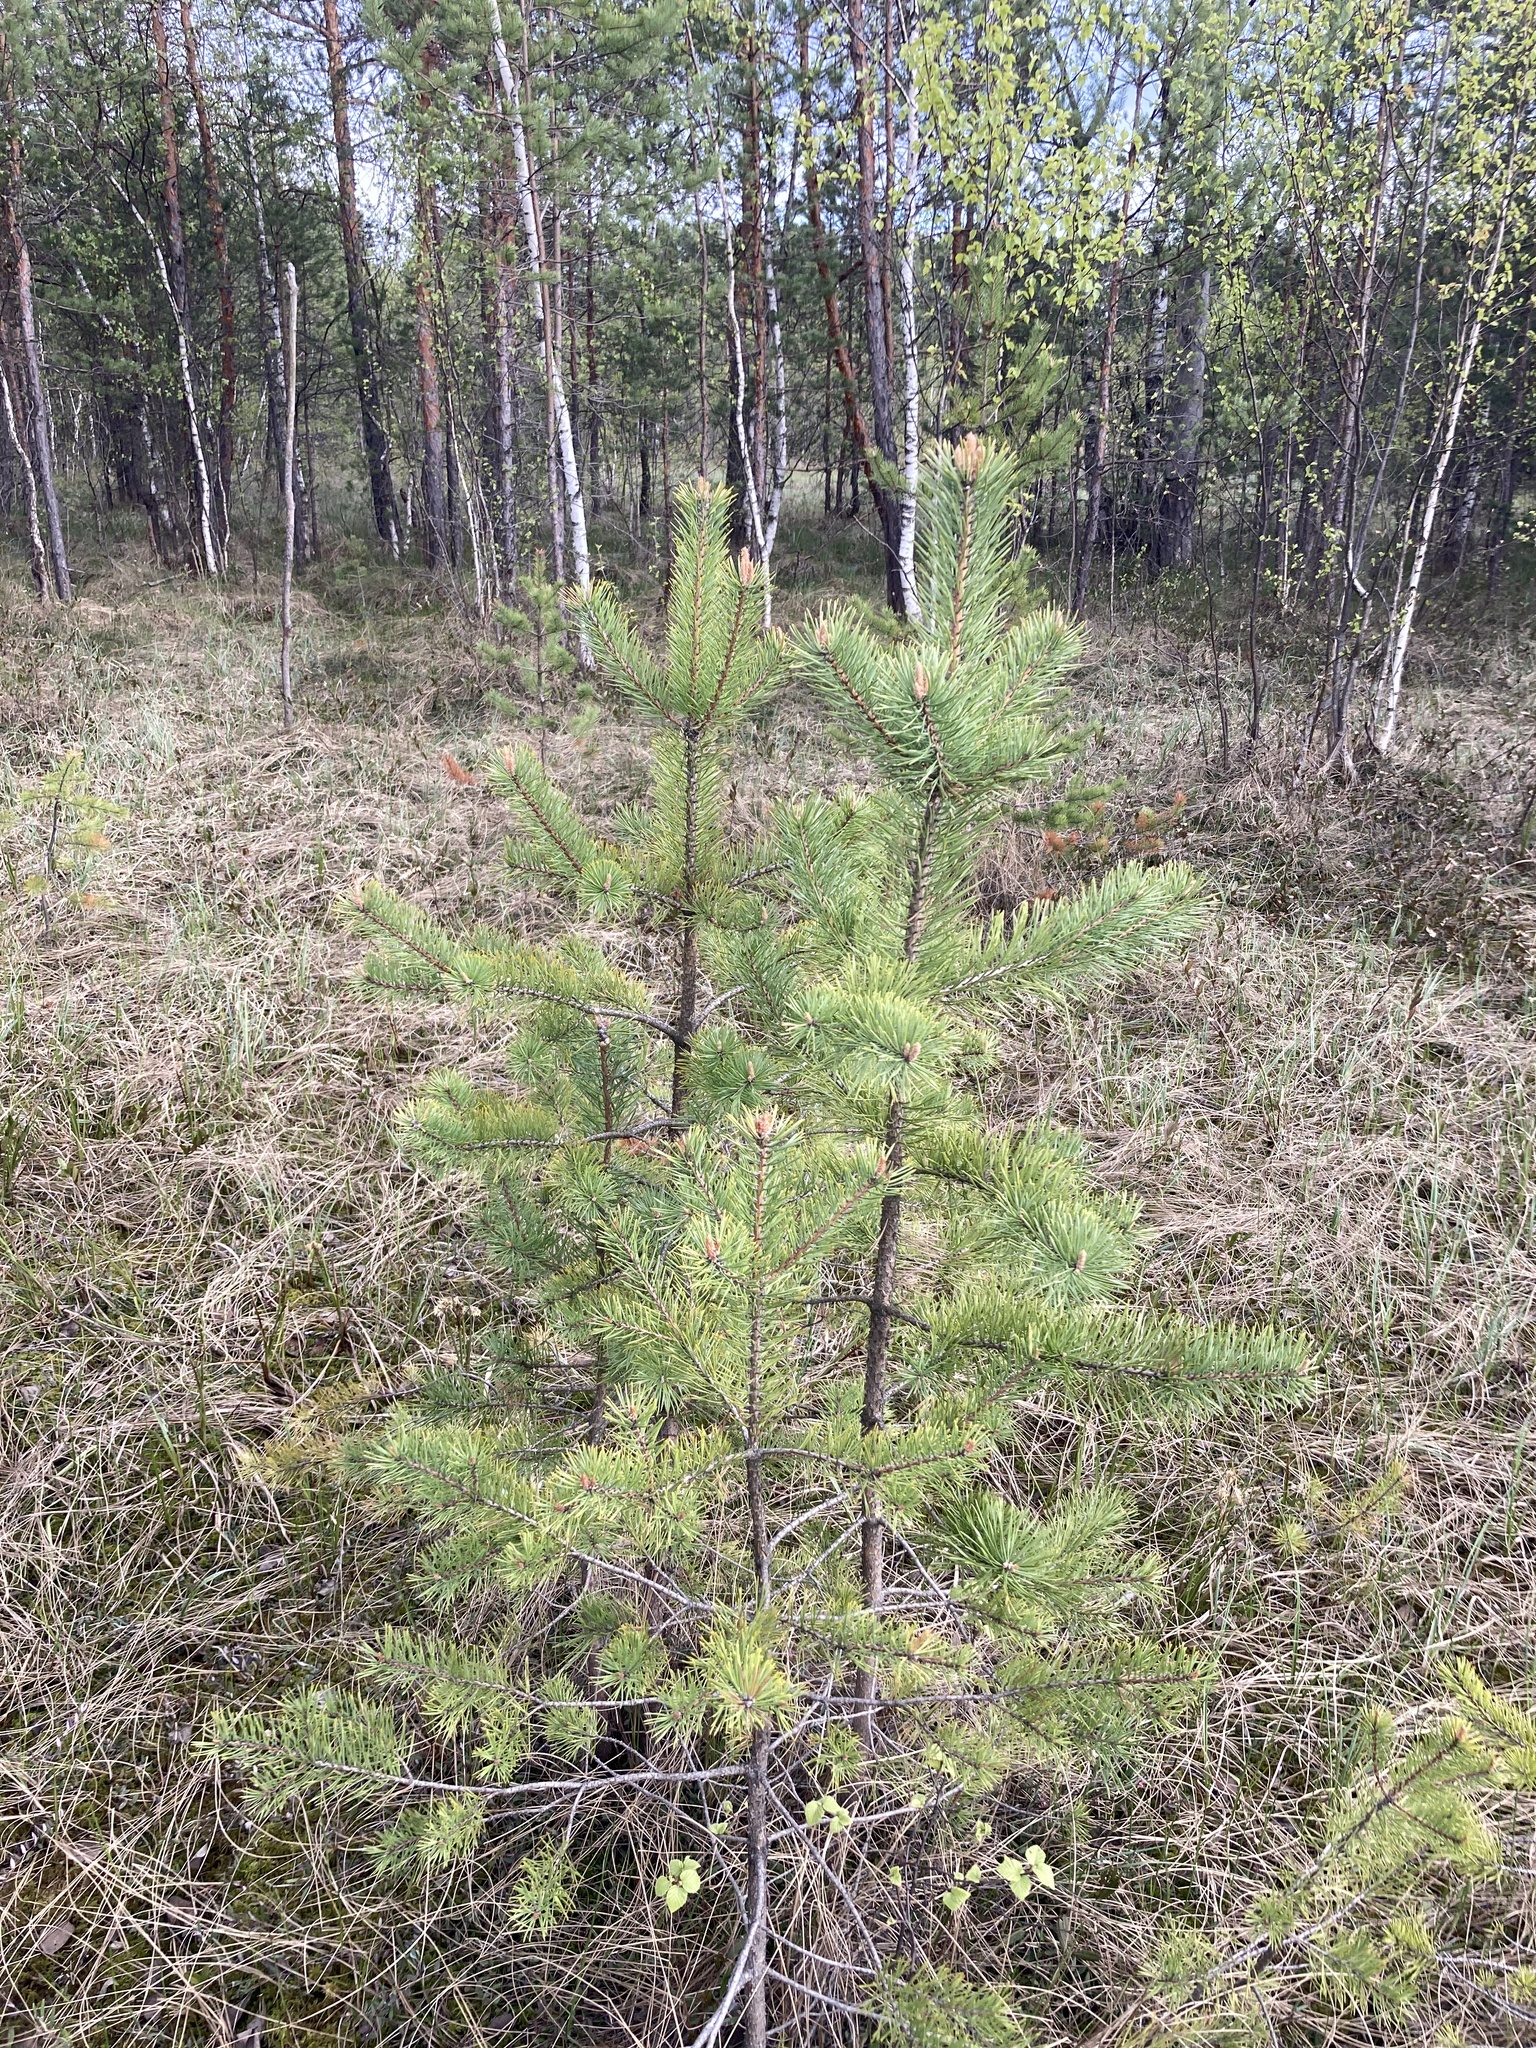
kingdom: Plantae
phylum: Tracheophyta
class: Pinopsida
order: Pinales
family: Pinaceae
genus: Pinus
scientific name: Pinus sylvestris
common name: Scots pine
